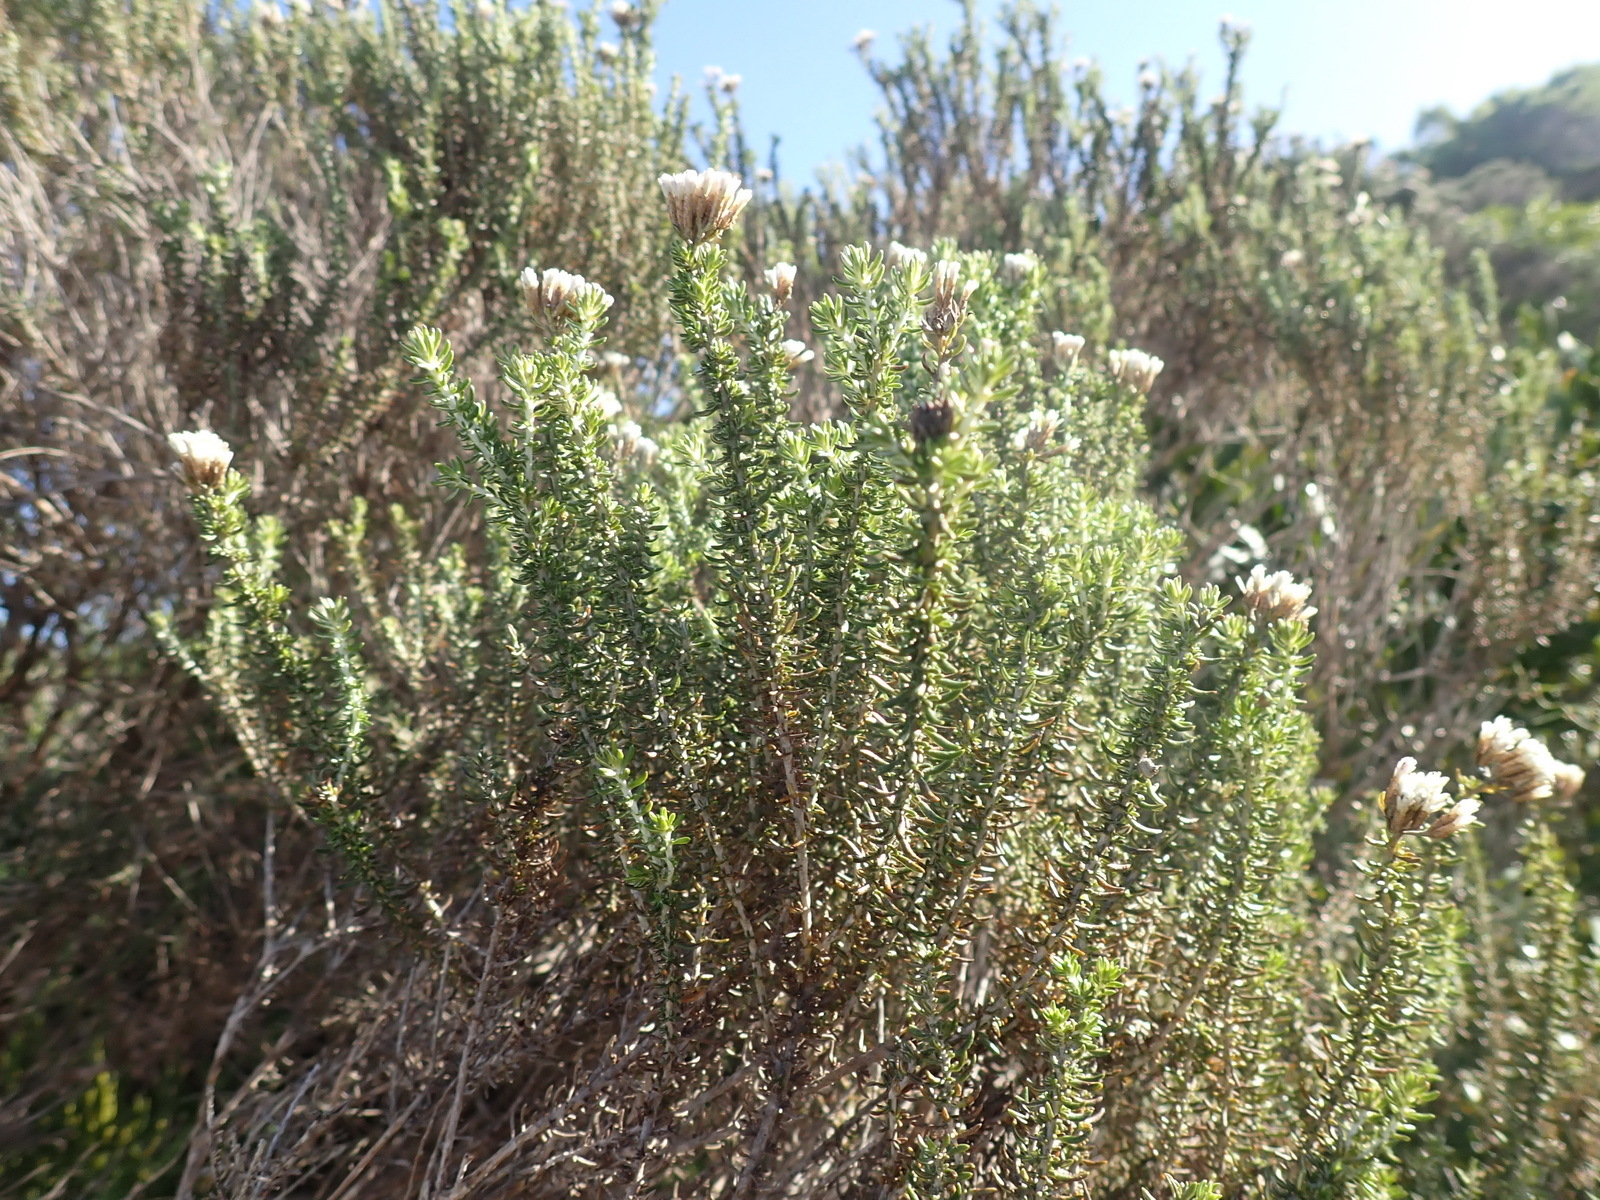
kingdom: Plantae
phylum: Tracheophyta
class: Magnoliopsida
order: Asterales
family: Asteraceae
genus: Metalasia
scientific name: Metalasia muricata
